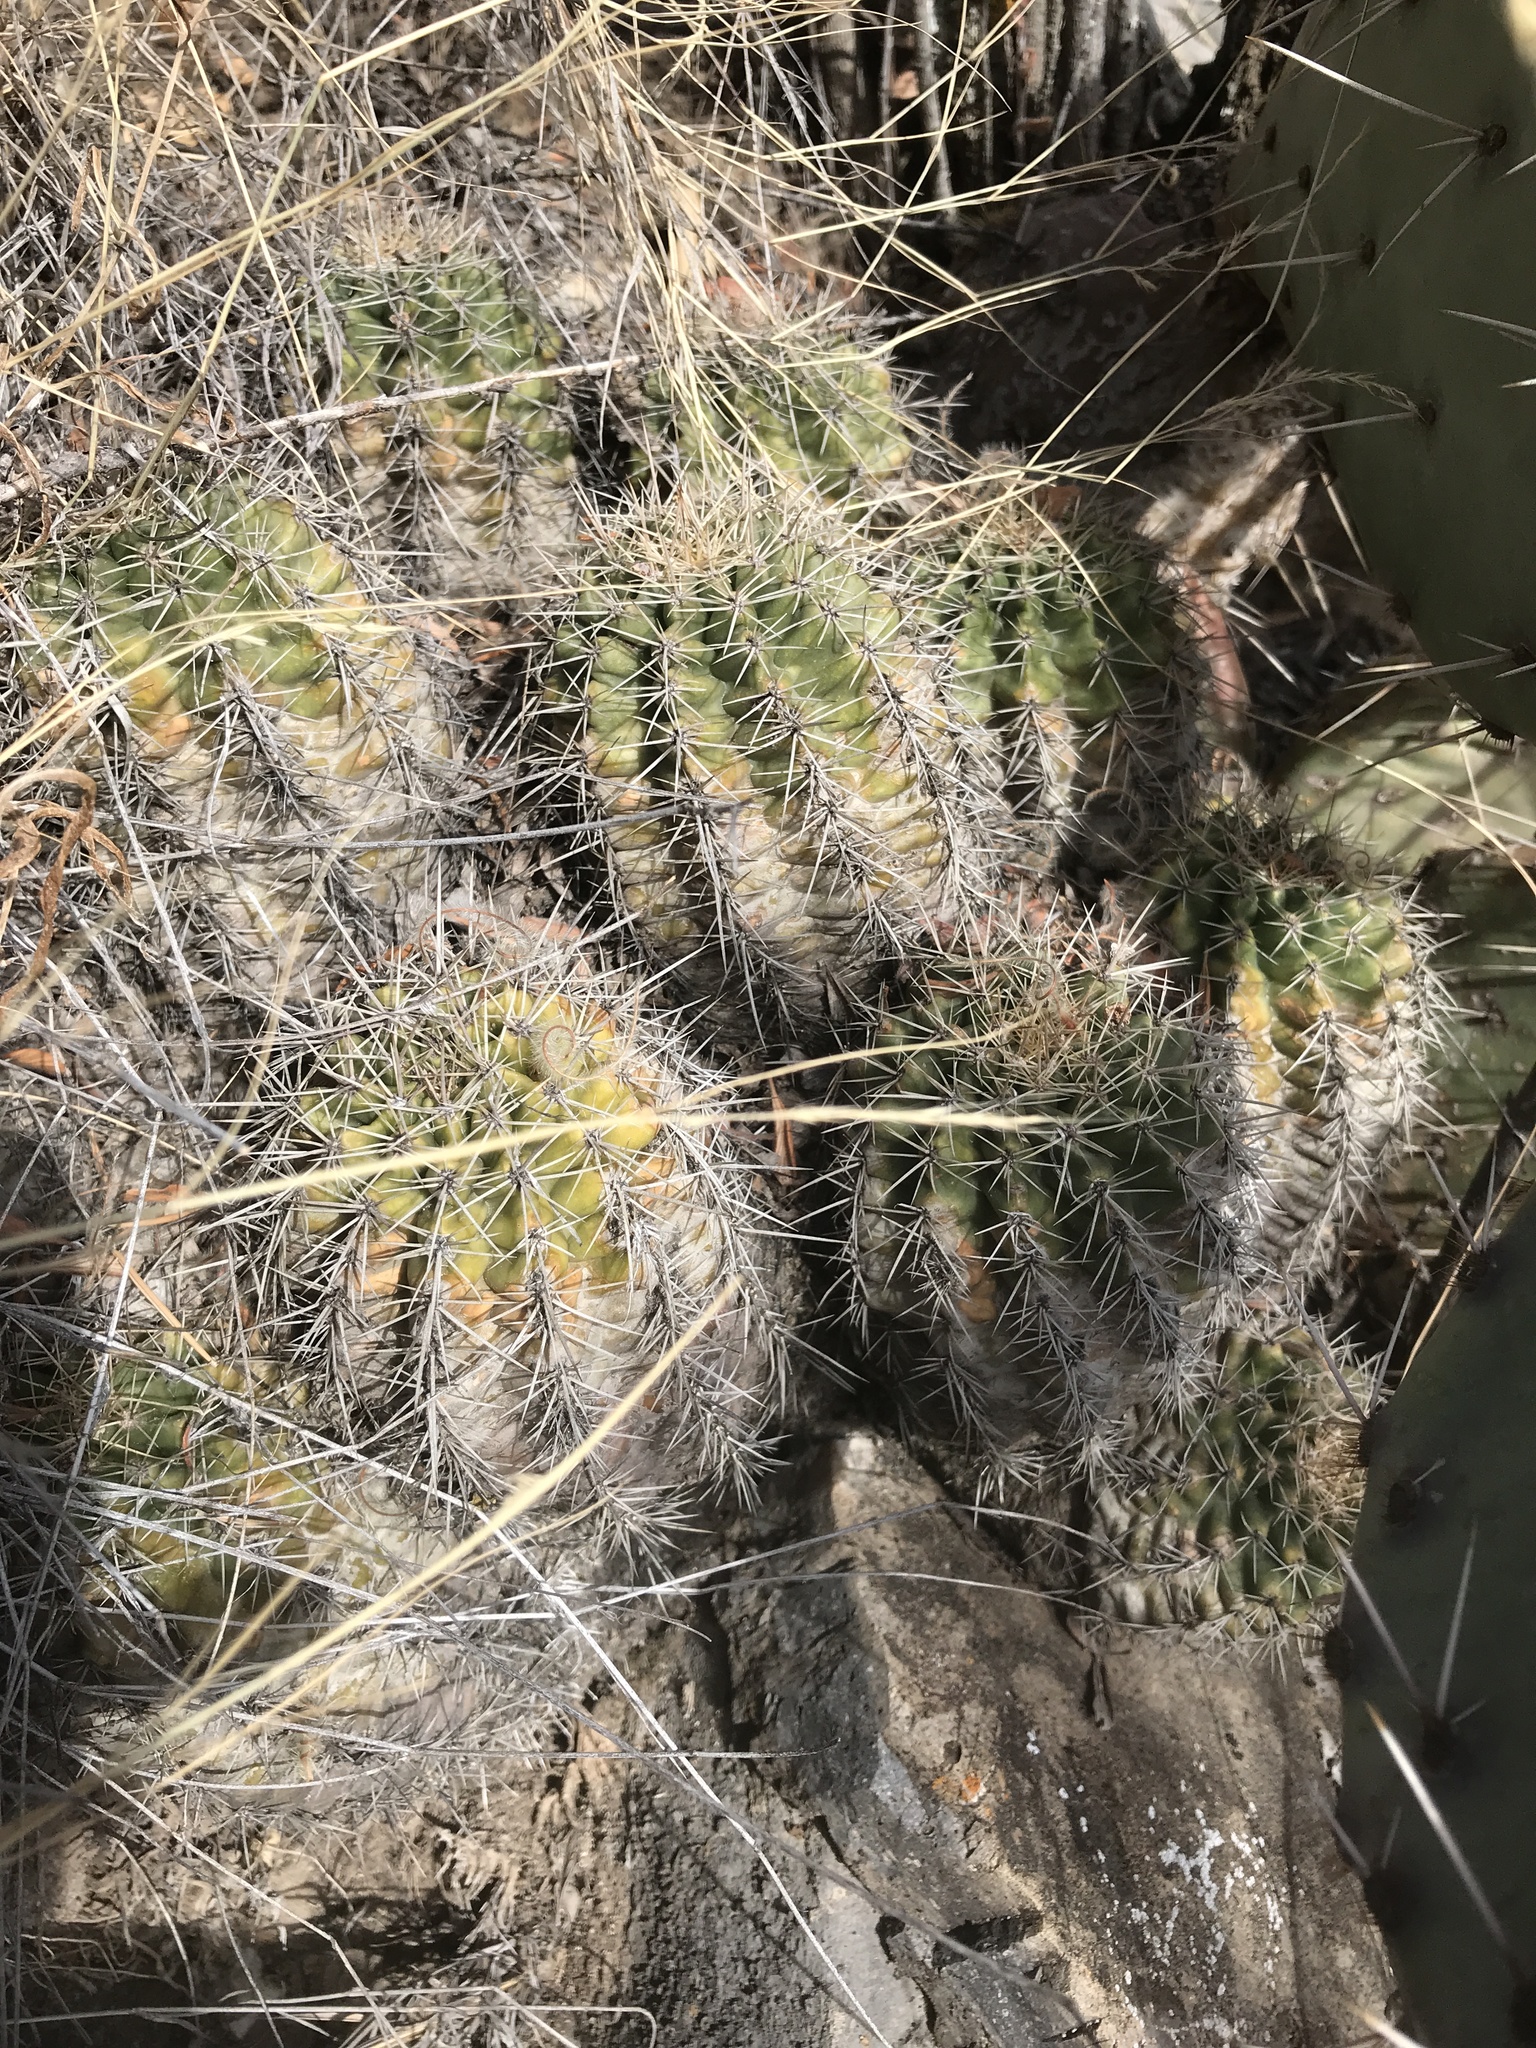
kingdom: Plantae
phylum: Tracheophyta
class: Magnoliopsida
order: Caryophyllales
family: Cactaceae
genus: Echinocereus
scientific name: Echinocereus coccineus
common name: Scarlet hedgehog cactus
